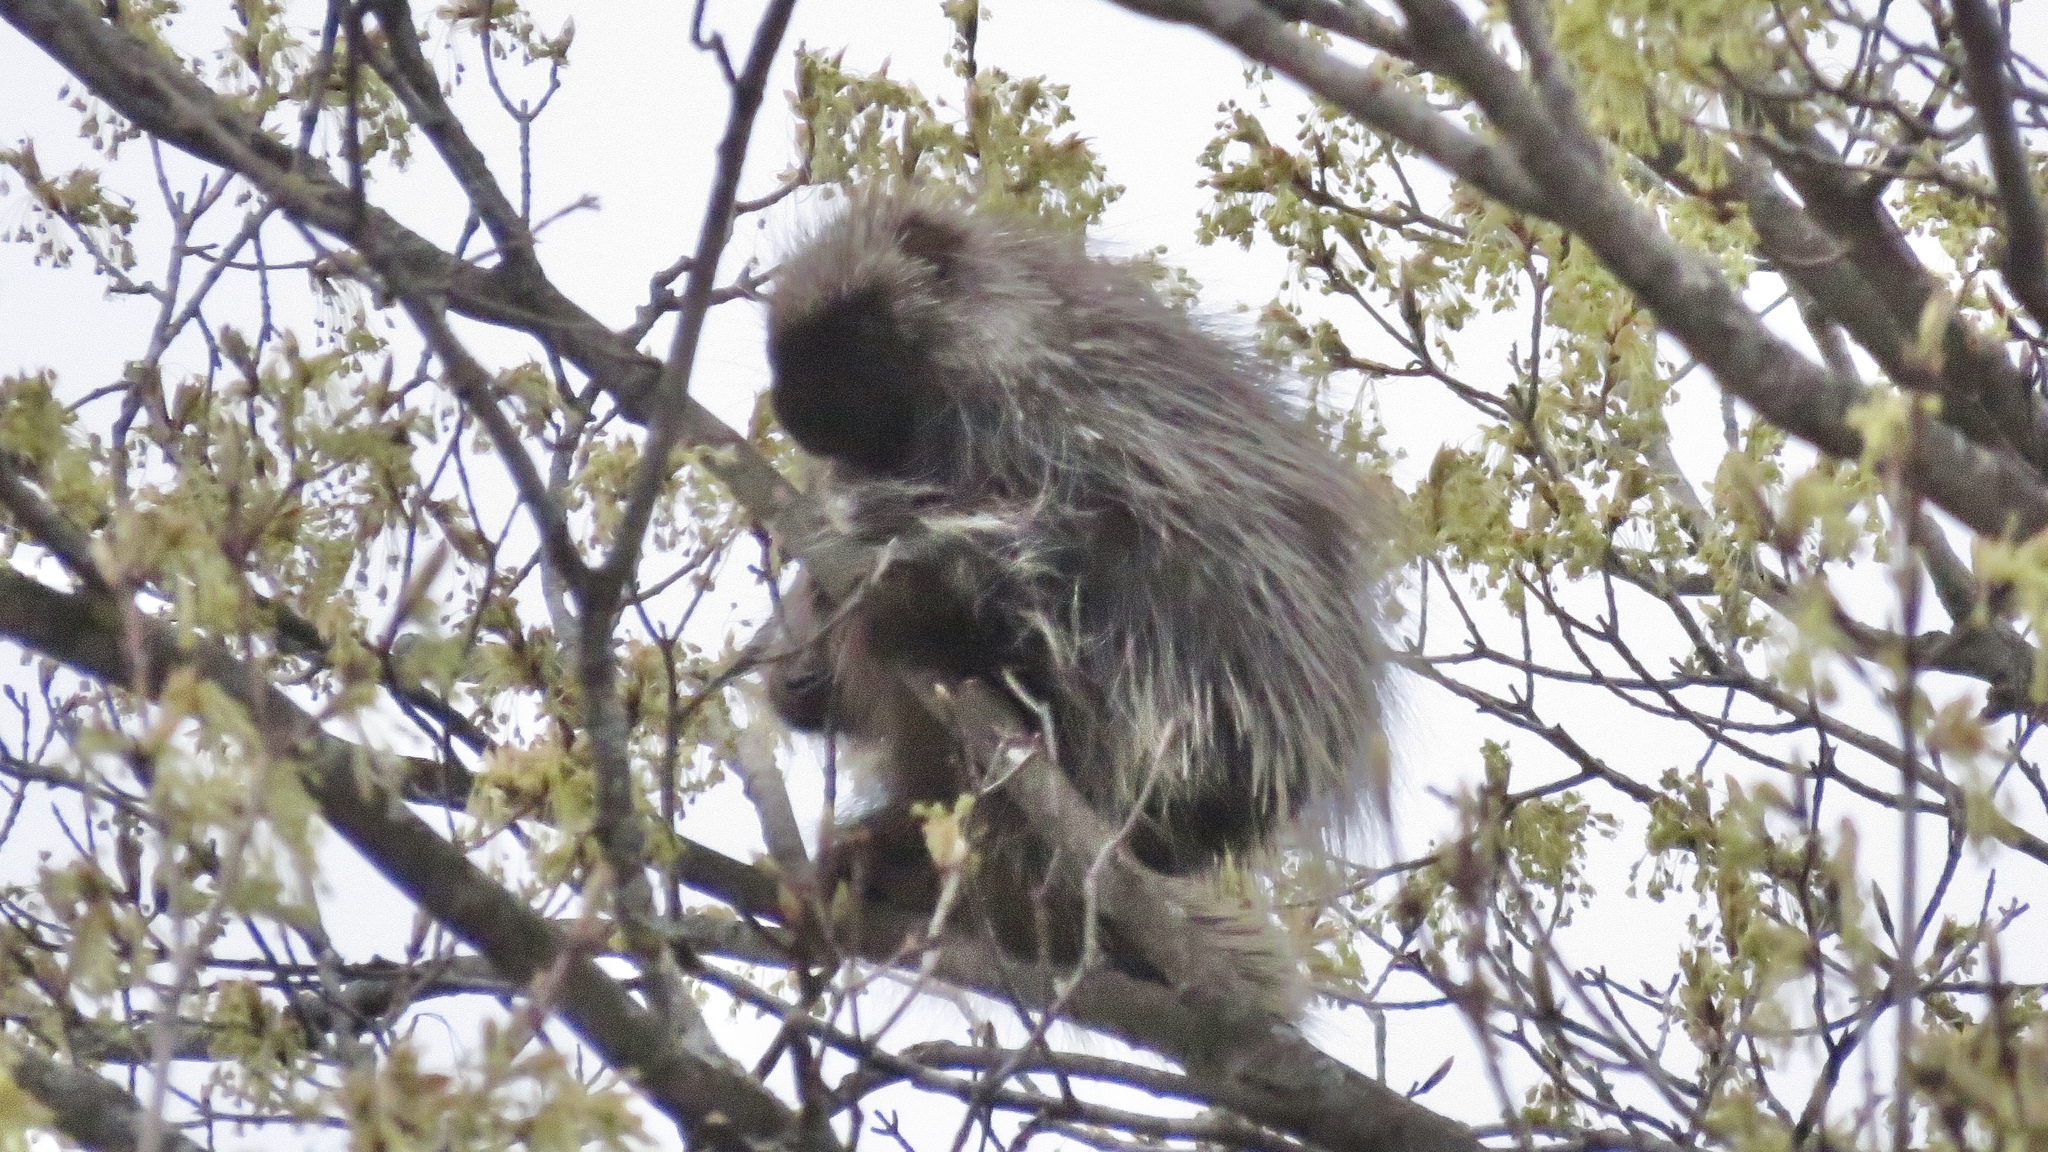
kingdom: Animalia
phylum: Chordata
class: Mammalia
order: Rodentia
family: Erethizontidae
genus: Erethizon
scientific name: Erethizon dorsatus
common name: North american porcupine
